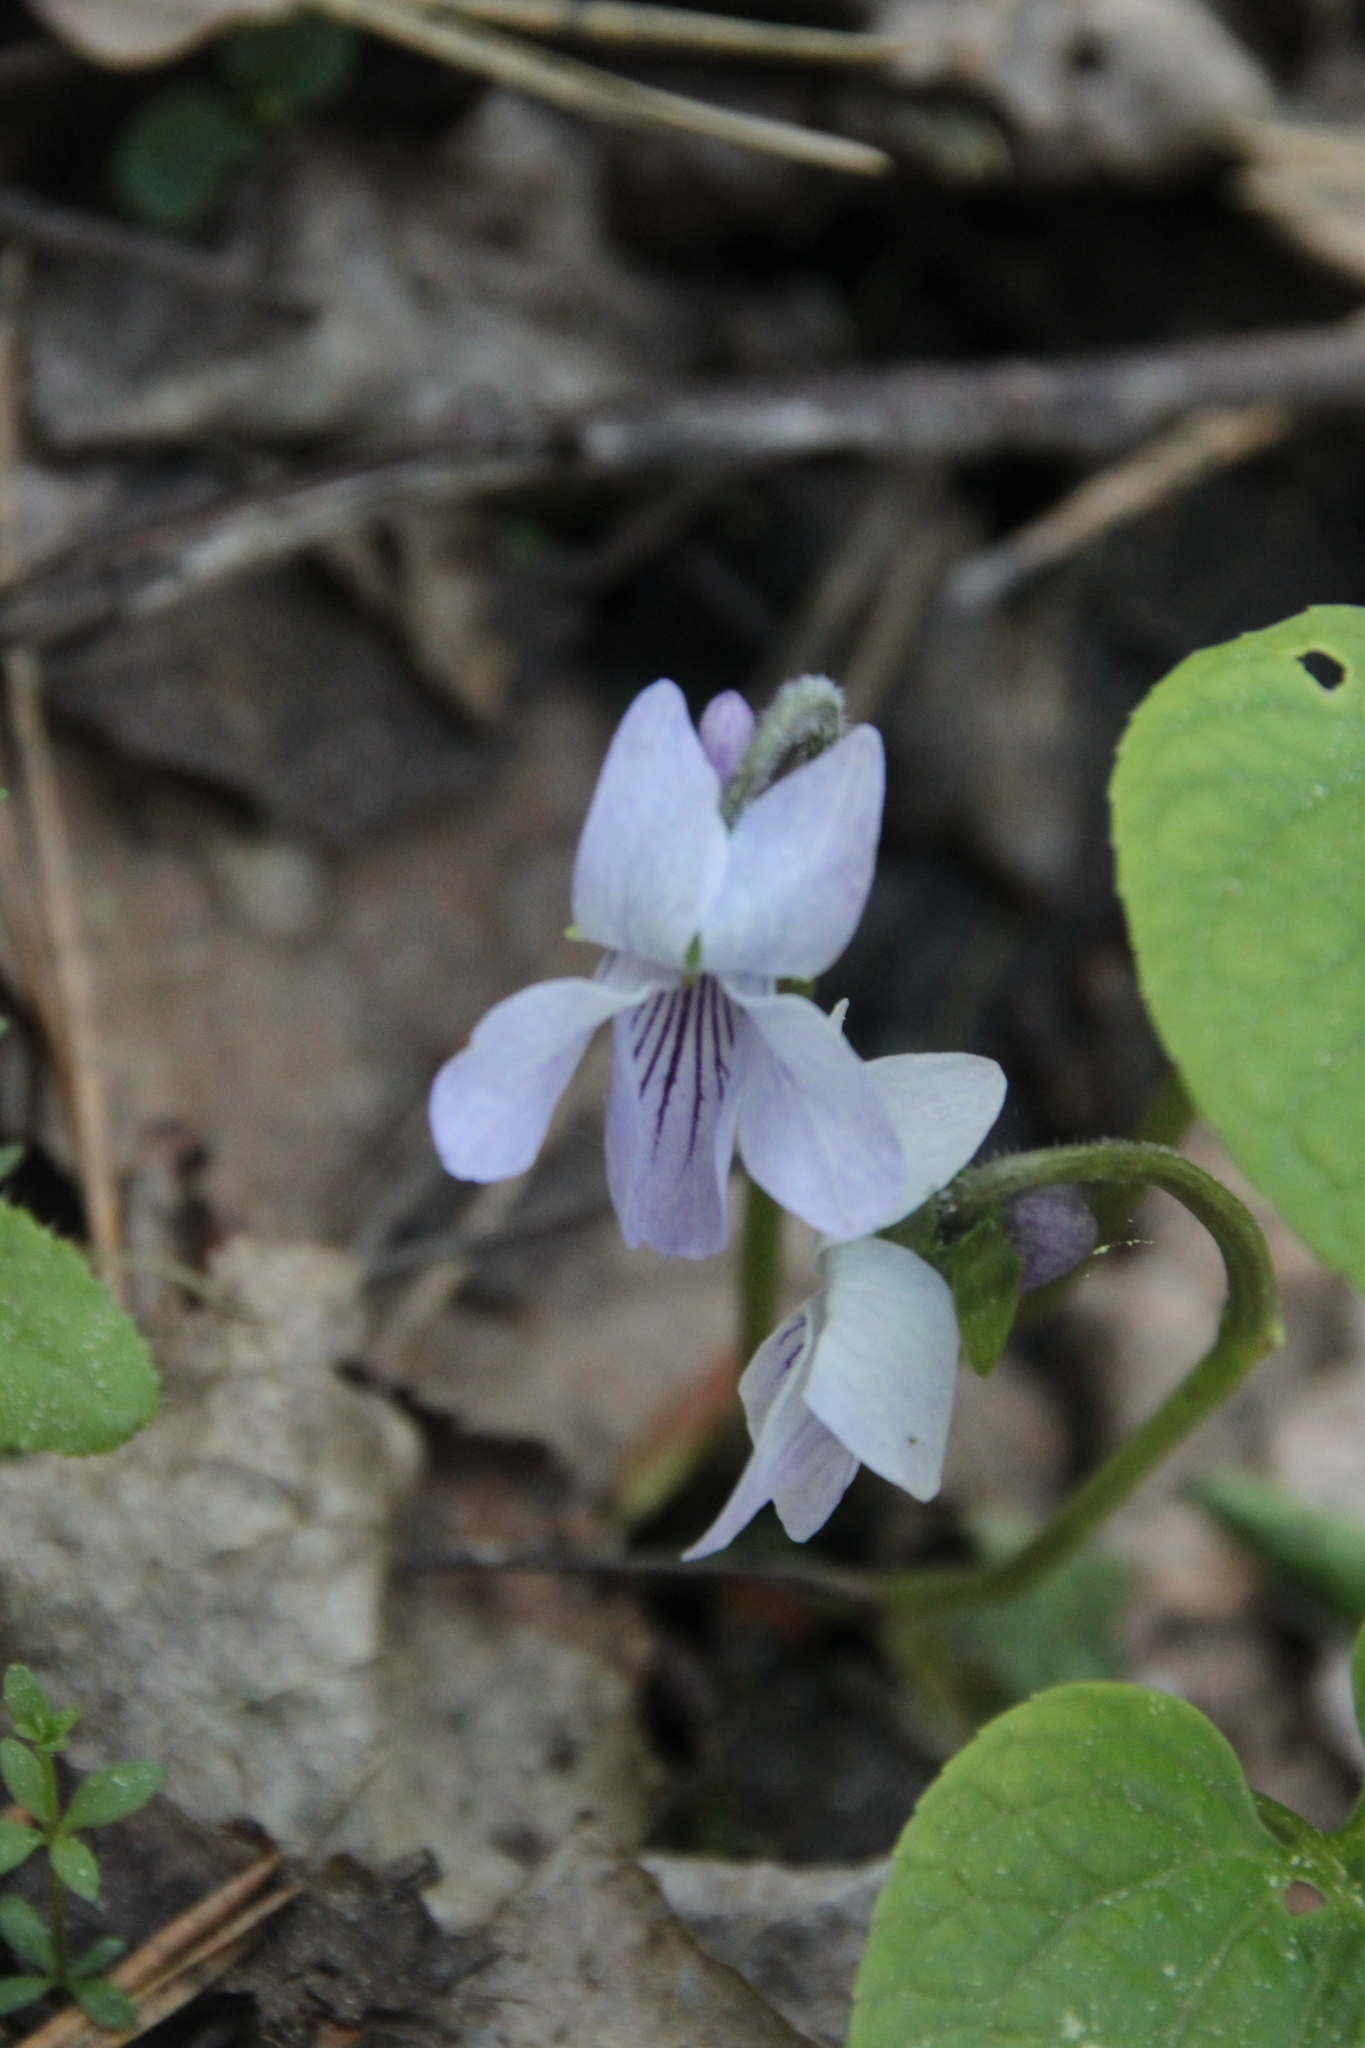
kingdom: Plantae
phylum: Tracheophyta
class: Magnoliopsida
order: Malpighiales
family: Violaceae
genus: Viola
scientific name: Viola epipsila
